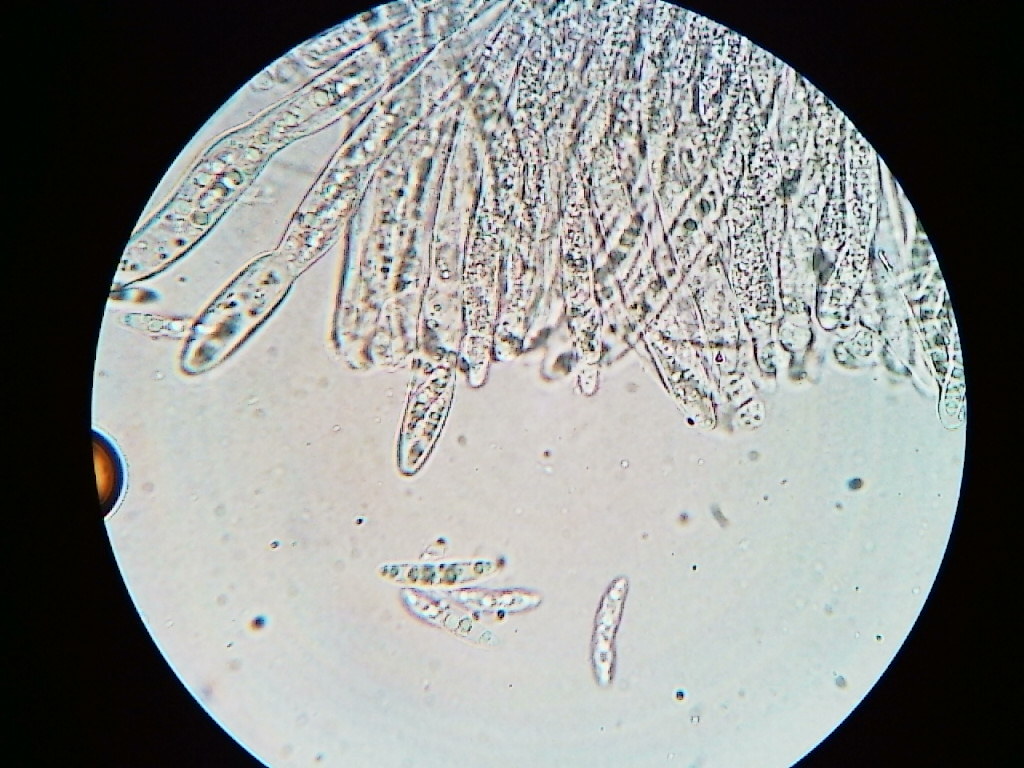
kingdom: Fungi
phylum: Ascomycota
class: Leotiomycetes
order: Helotiales
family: Pezizellaceae
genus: Calycina
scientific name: Calycina lactea
